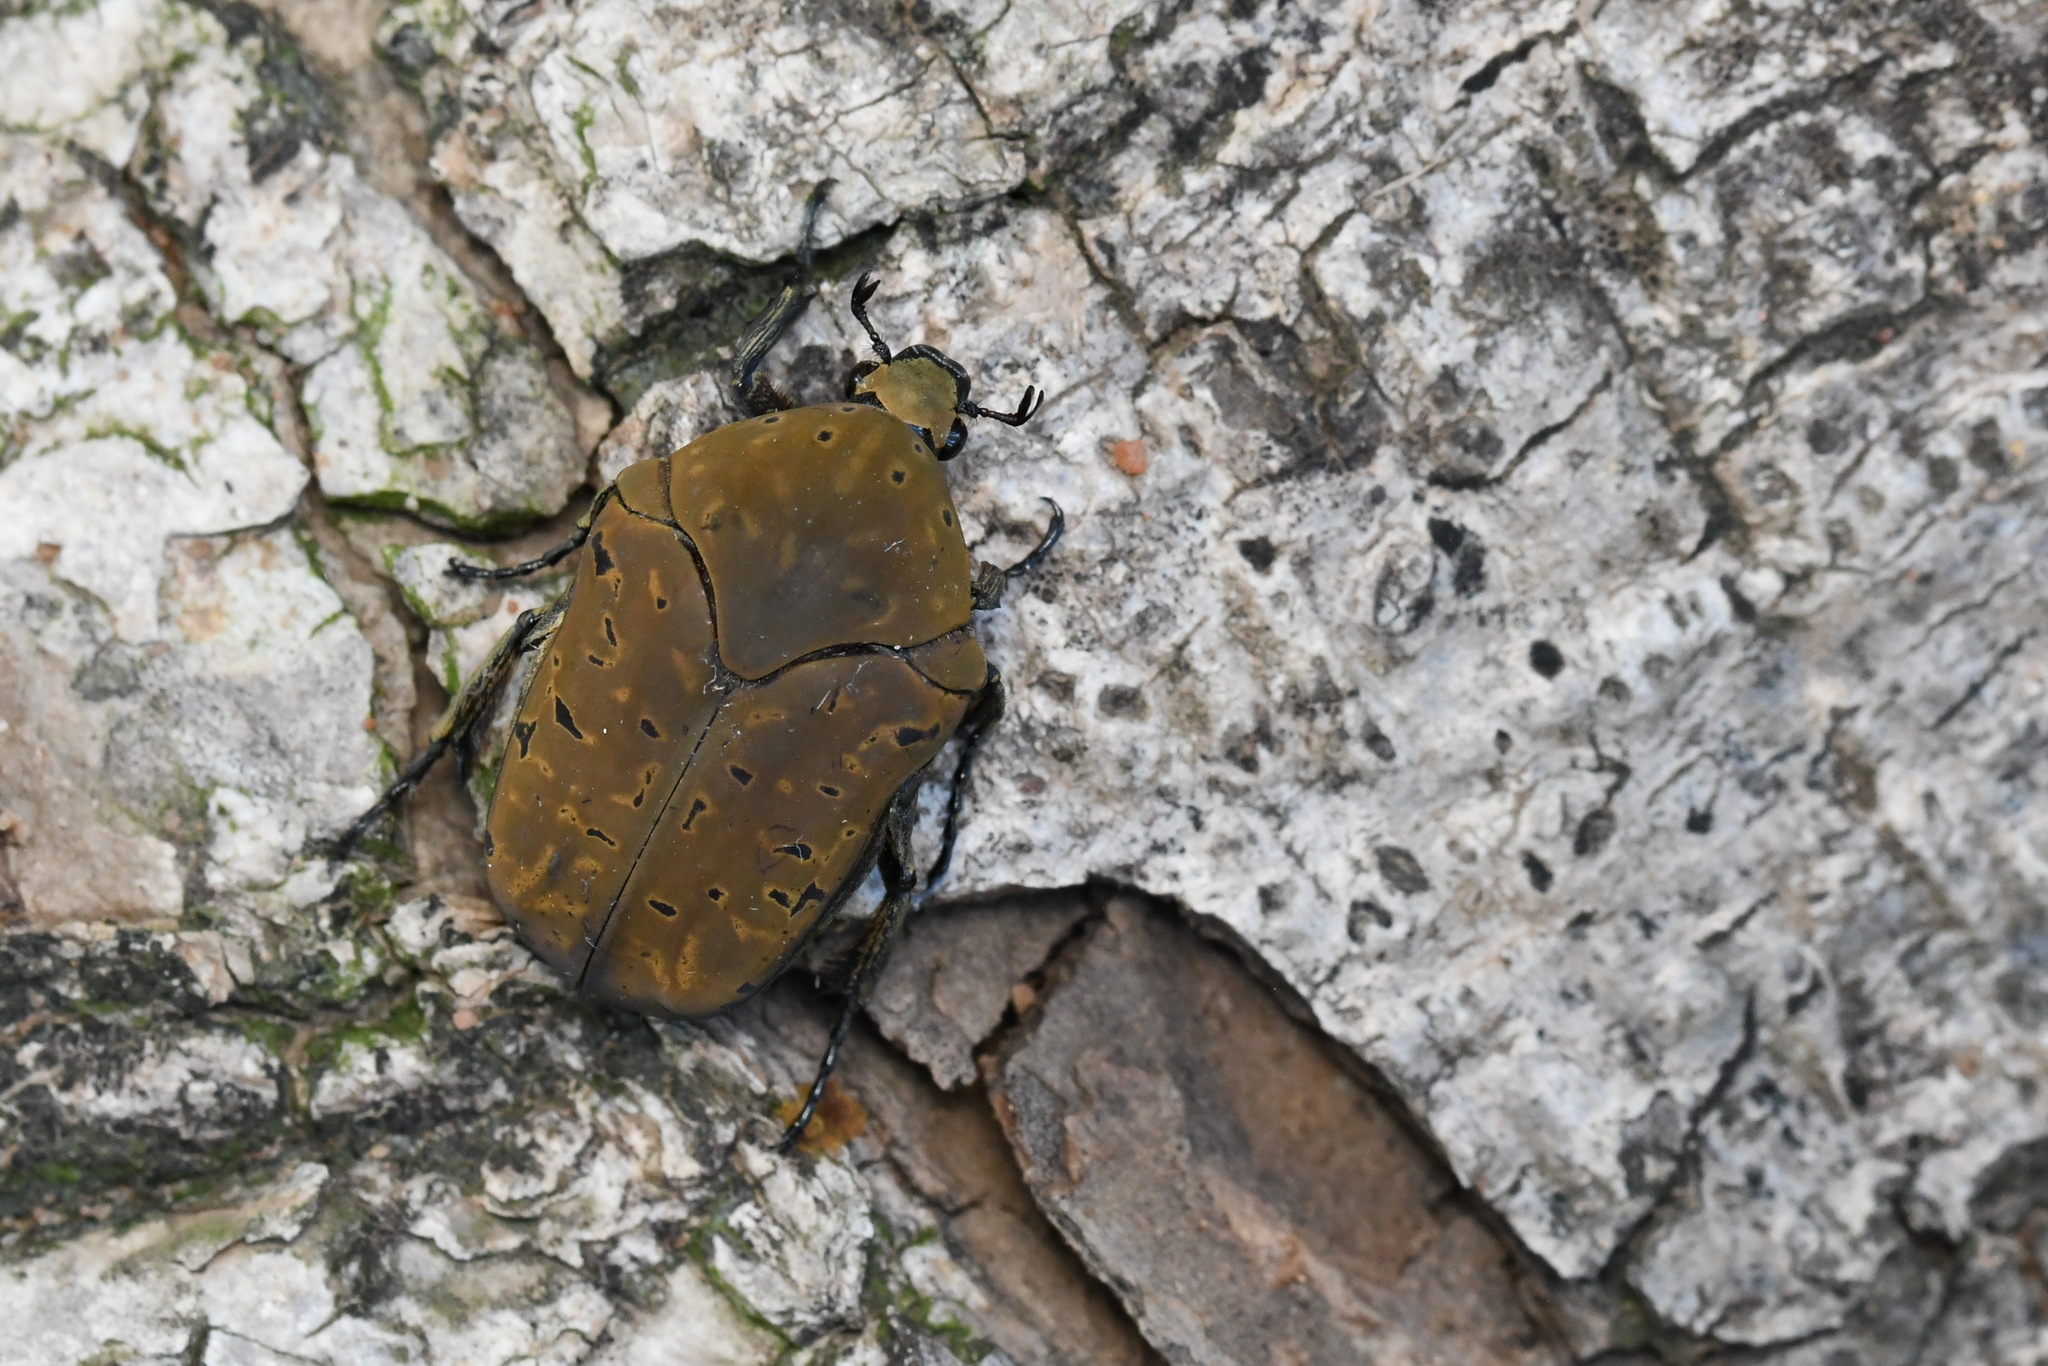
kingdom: Animalia
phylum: Arthropoda
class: Insecta
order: Coleoptera
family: Scarabaeidae
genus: Gymnetis
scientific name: Gymnetis pantherina
